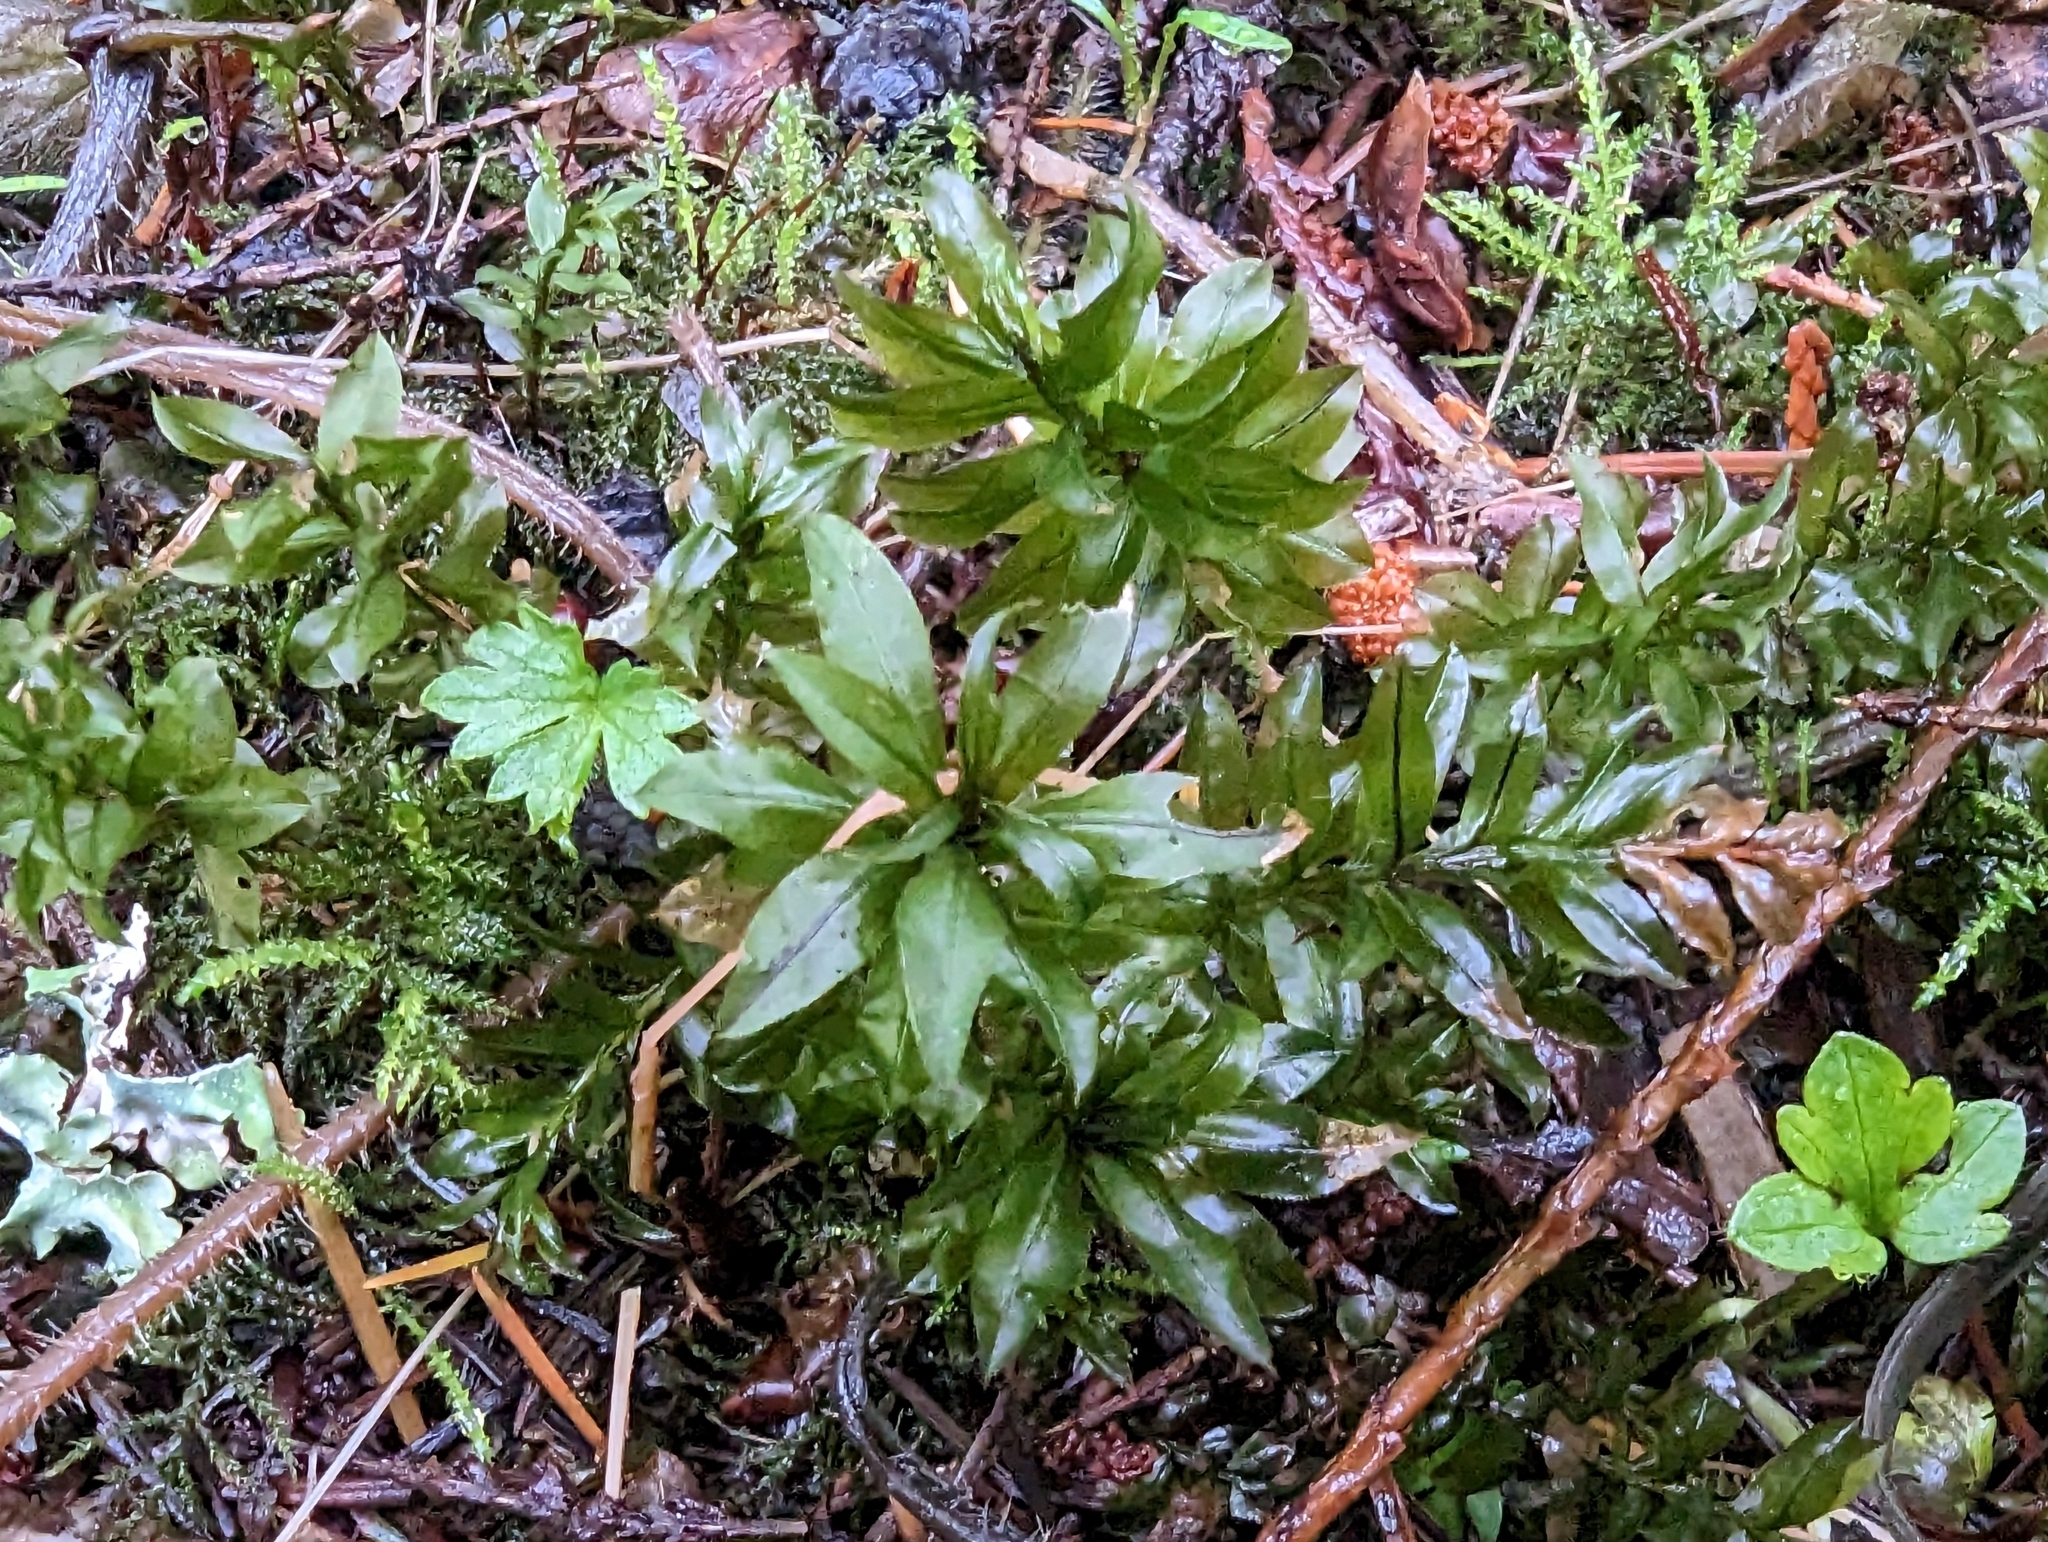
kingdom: Plantae
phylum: Bryophyta
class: Bryopsida
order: Bryales
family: Mniaceae
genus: Plagiomnium
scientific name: Plagiomnium insigne
